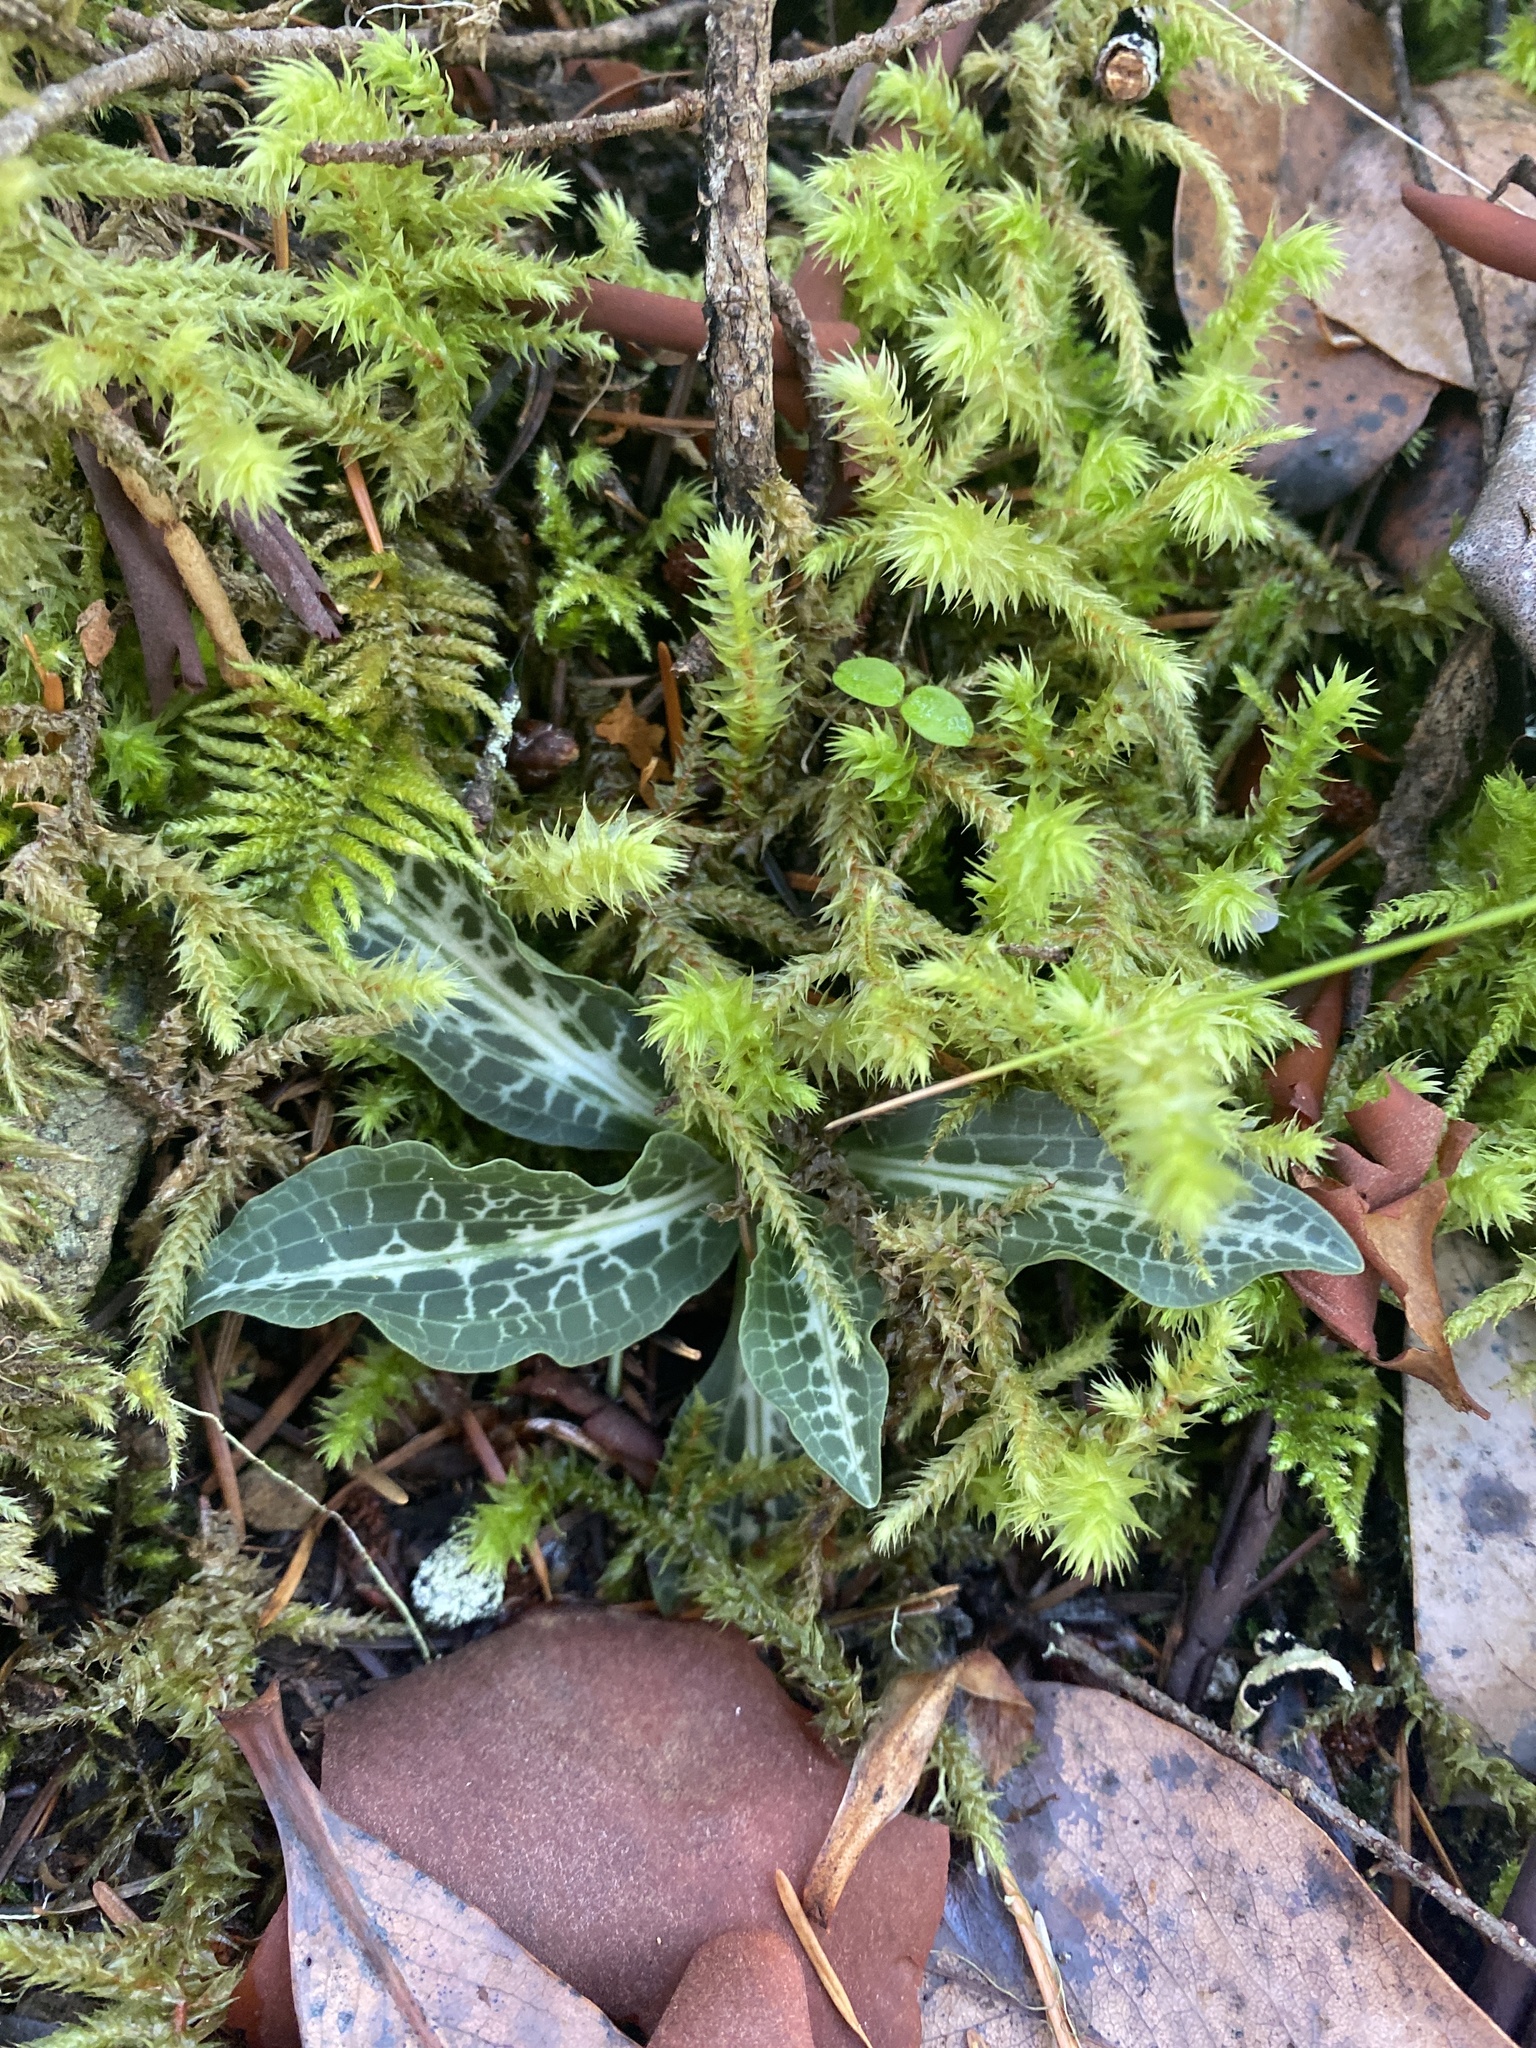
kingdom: Plantae
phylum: Tracheophyta
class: Liliopsida
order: Asparagales
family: Orchidaceae
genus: Goodyera
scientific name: Goodyera oblongifolia
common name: Giant rattlesnake-plantain
